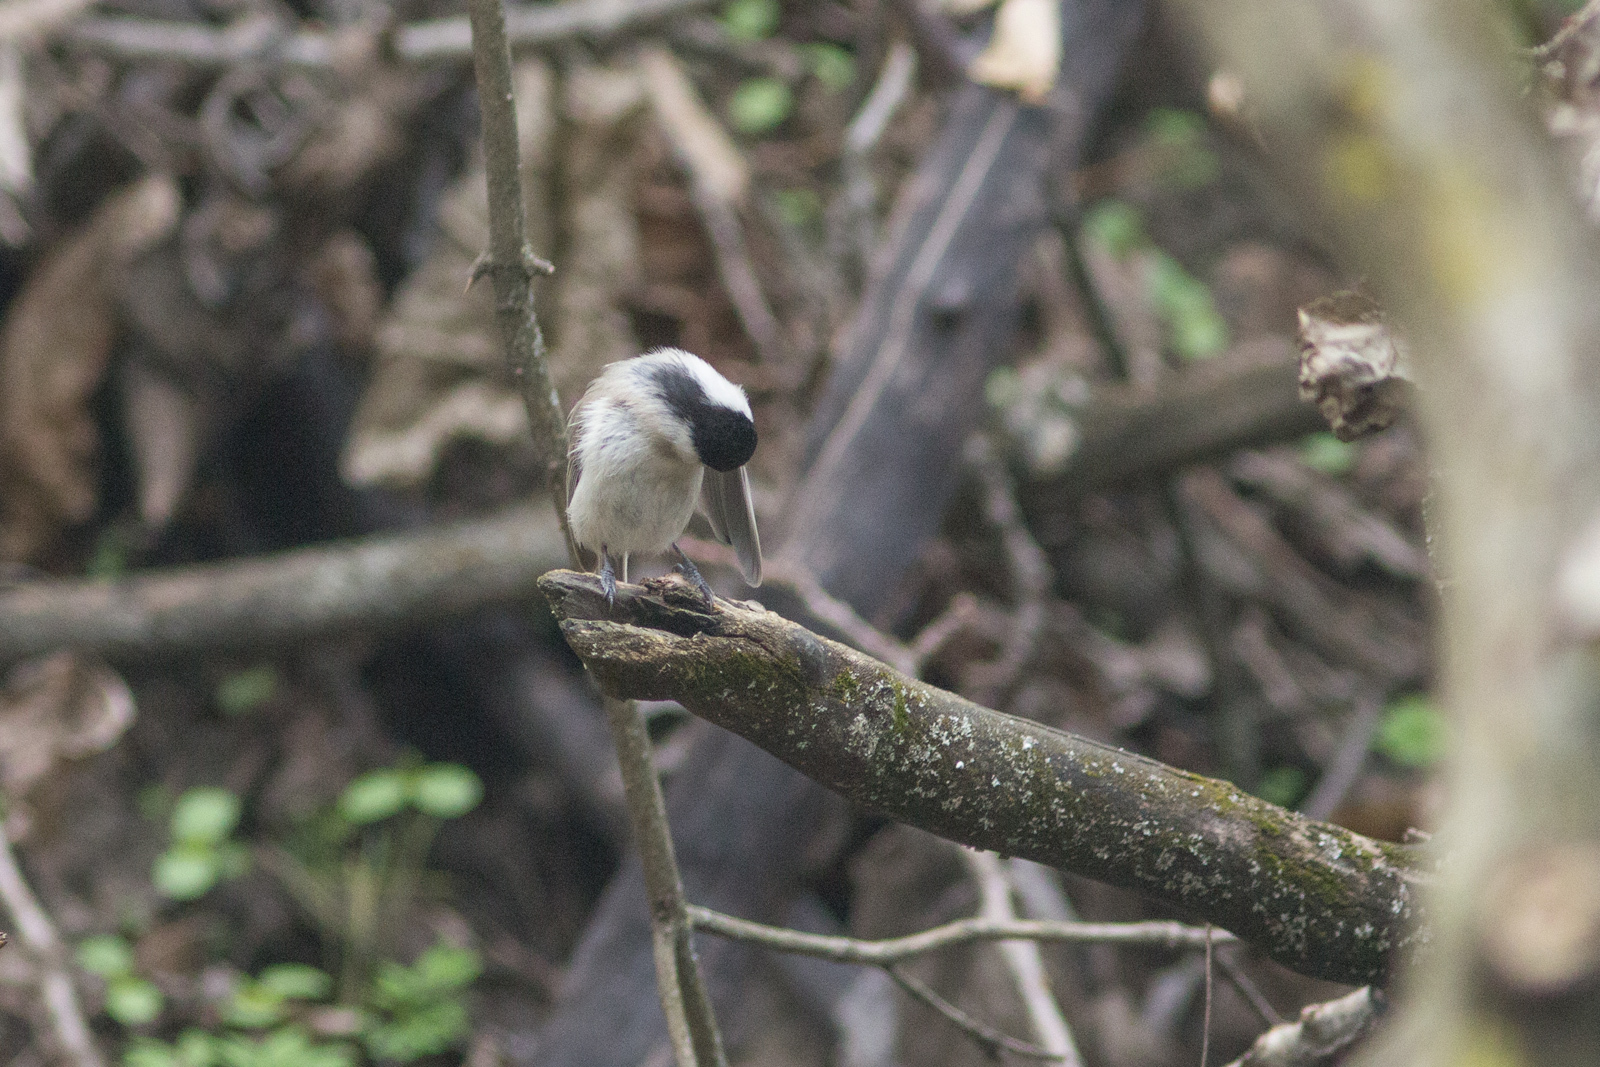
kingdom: Animalia
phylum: Chordata
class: Aves
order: Passeriformes
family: Paridae
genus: Poecile
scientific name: Poecile palustris
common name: Marsh tit
